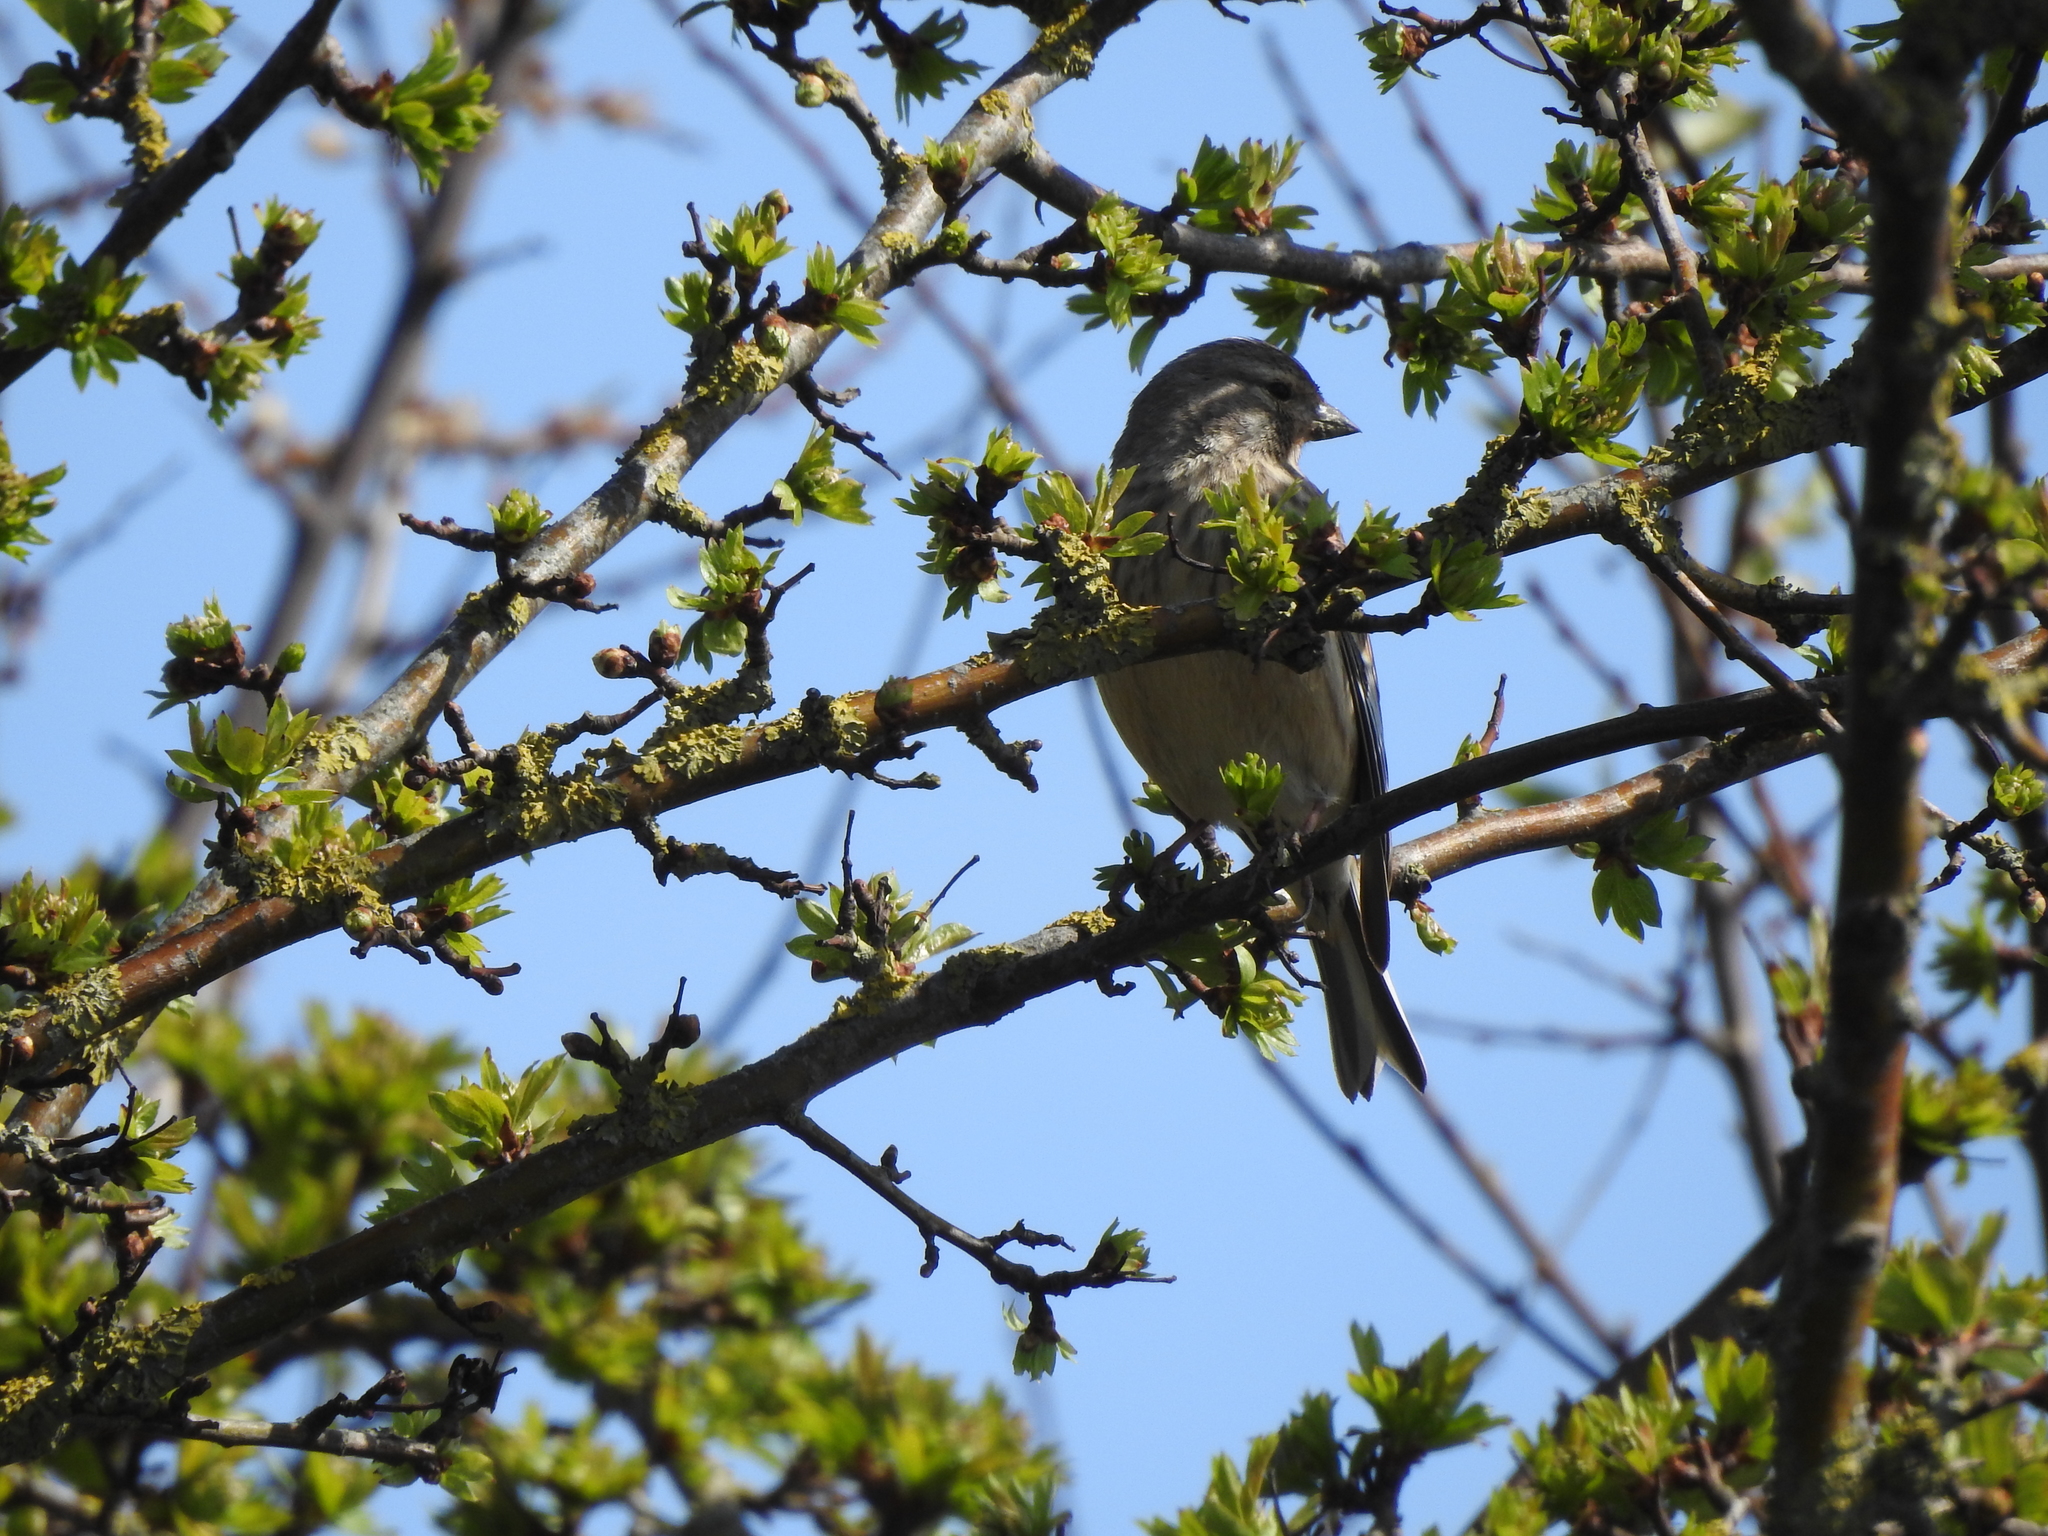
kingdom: Animalia
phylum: Chordata
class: Aves
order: Passeriformes
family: Fringillidae
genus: Linaria
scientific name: Linaria cannabina
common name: Common linnet
